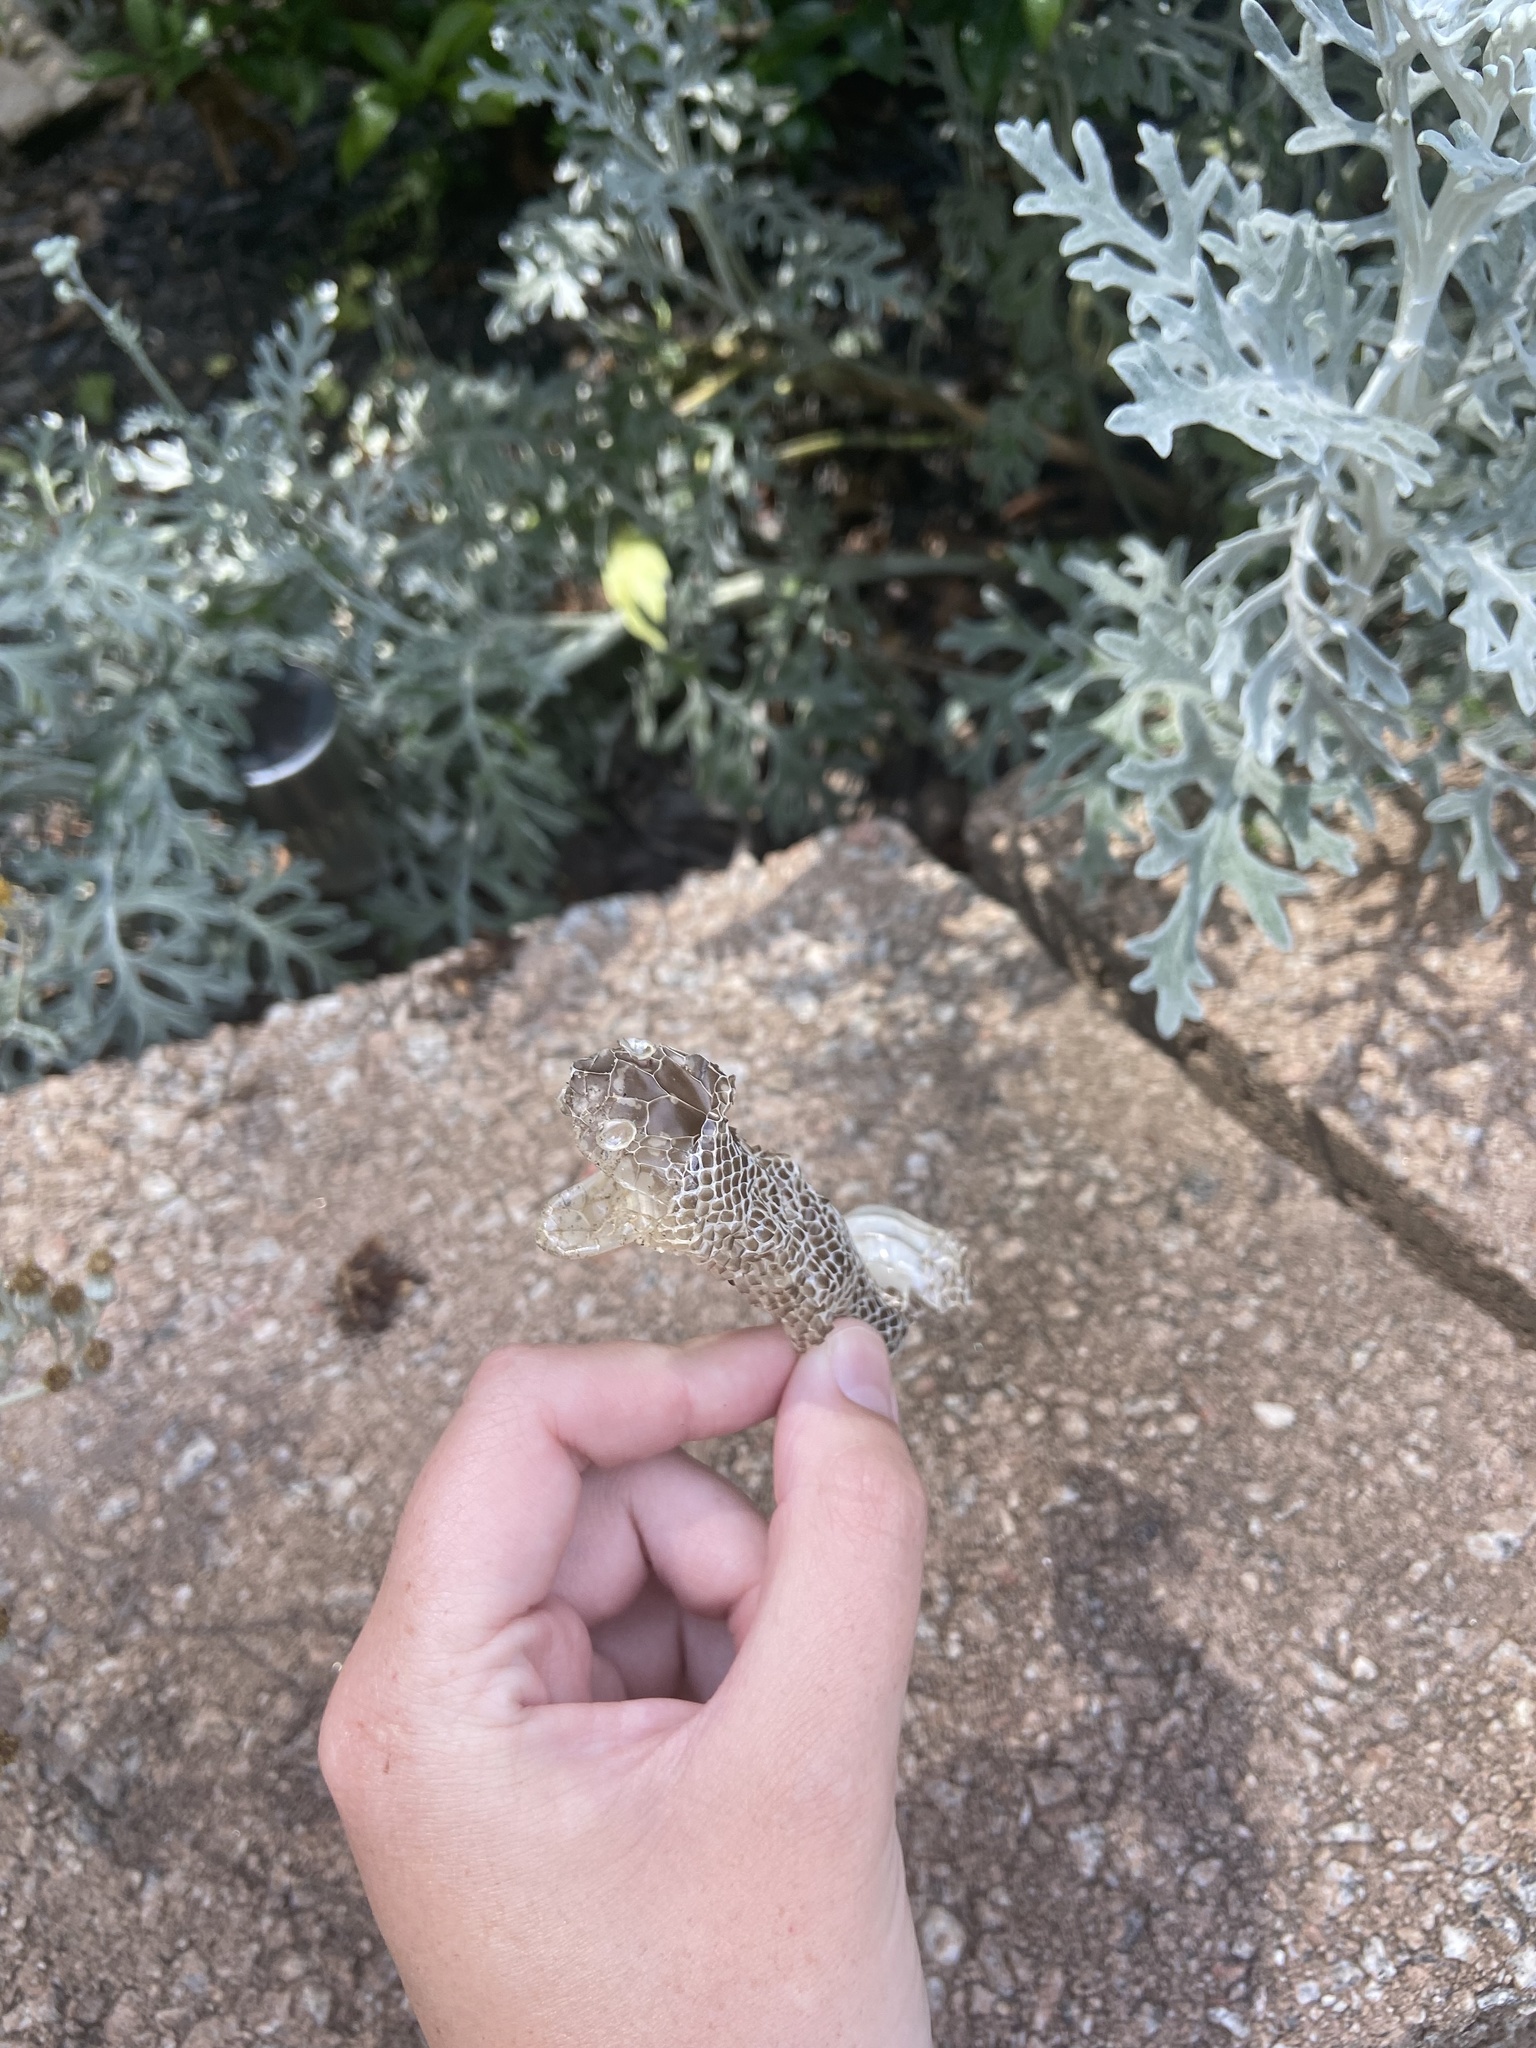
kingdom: Animalia
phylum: Chordata
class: Squamata
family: Colubridae
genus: Lampropeltis
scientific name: Lampropeltis getula
